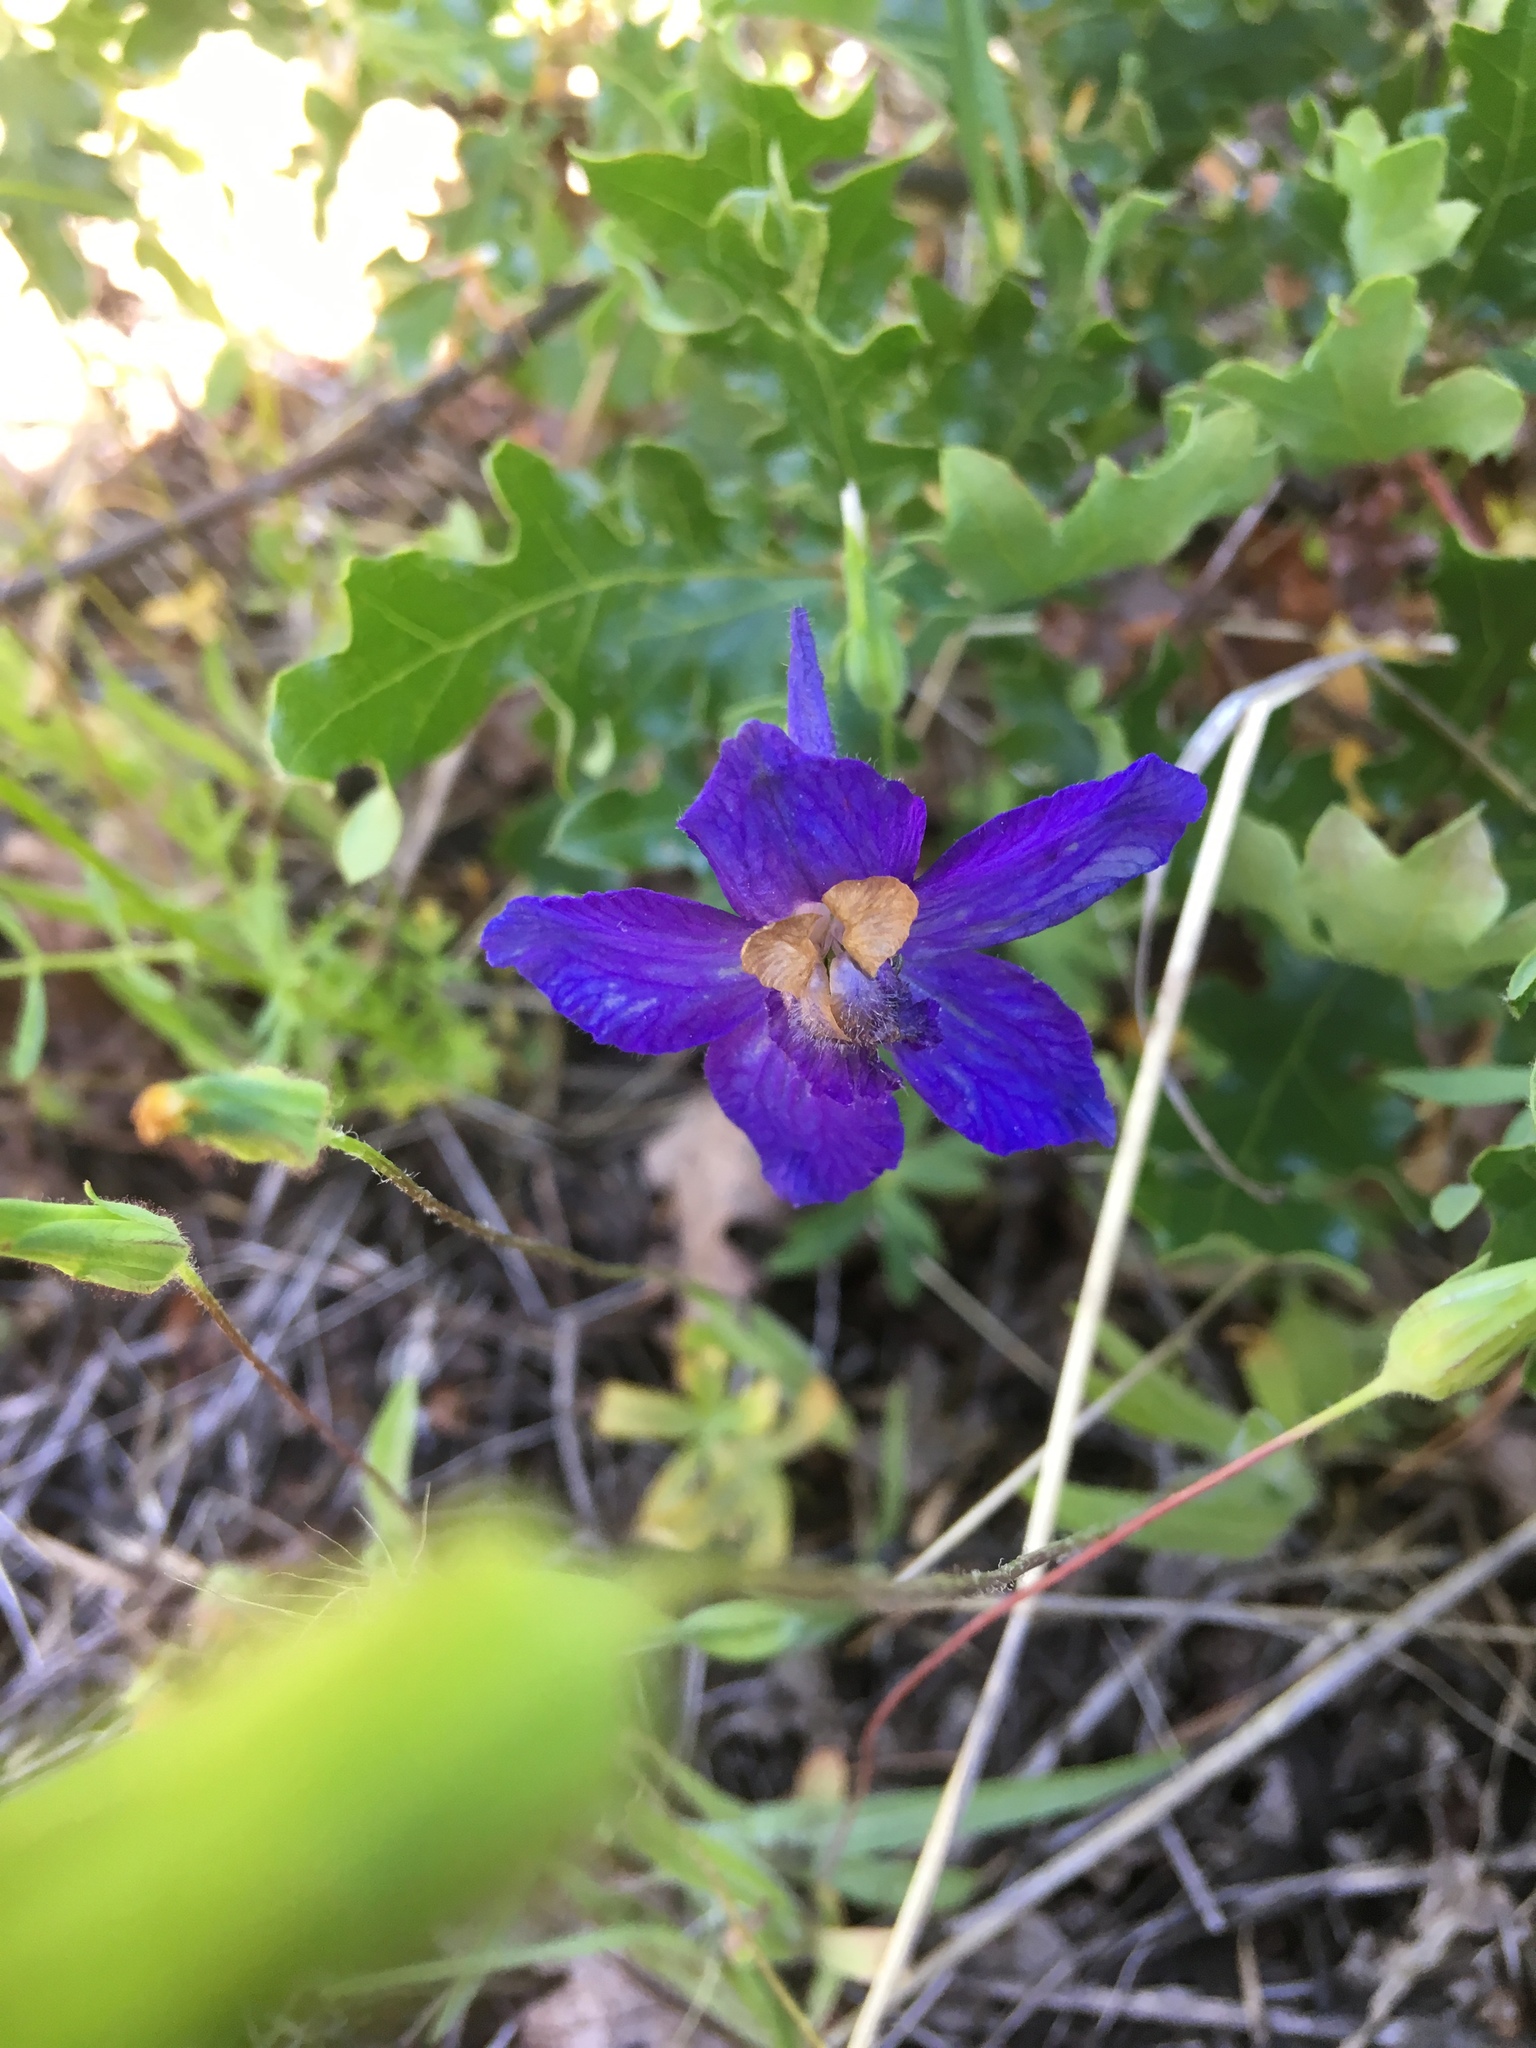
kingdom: Plantae
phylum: Tracheophyta
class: Magnoliopsida
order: Ranunculales
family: Ranunculaceae
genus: Delphinium
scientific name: Delphinium menziesii
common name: Menzies's larkspur
